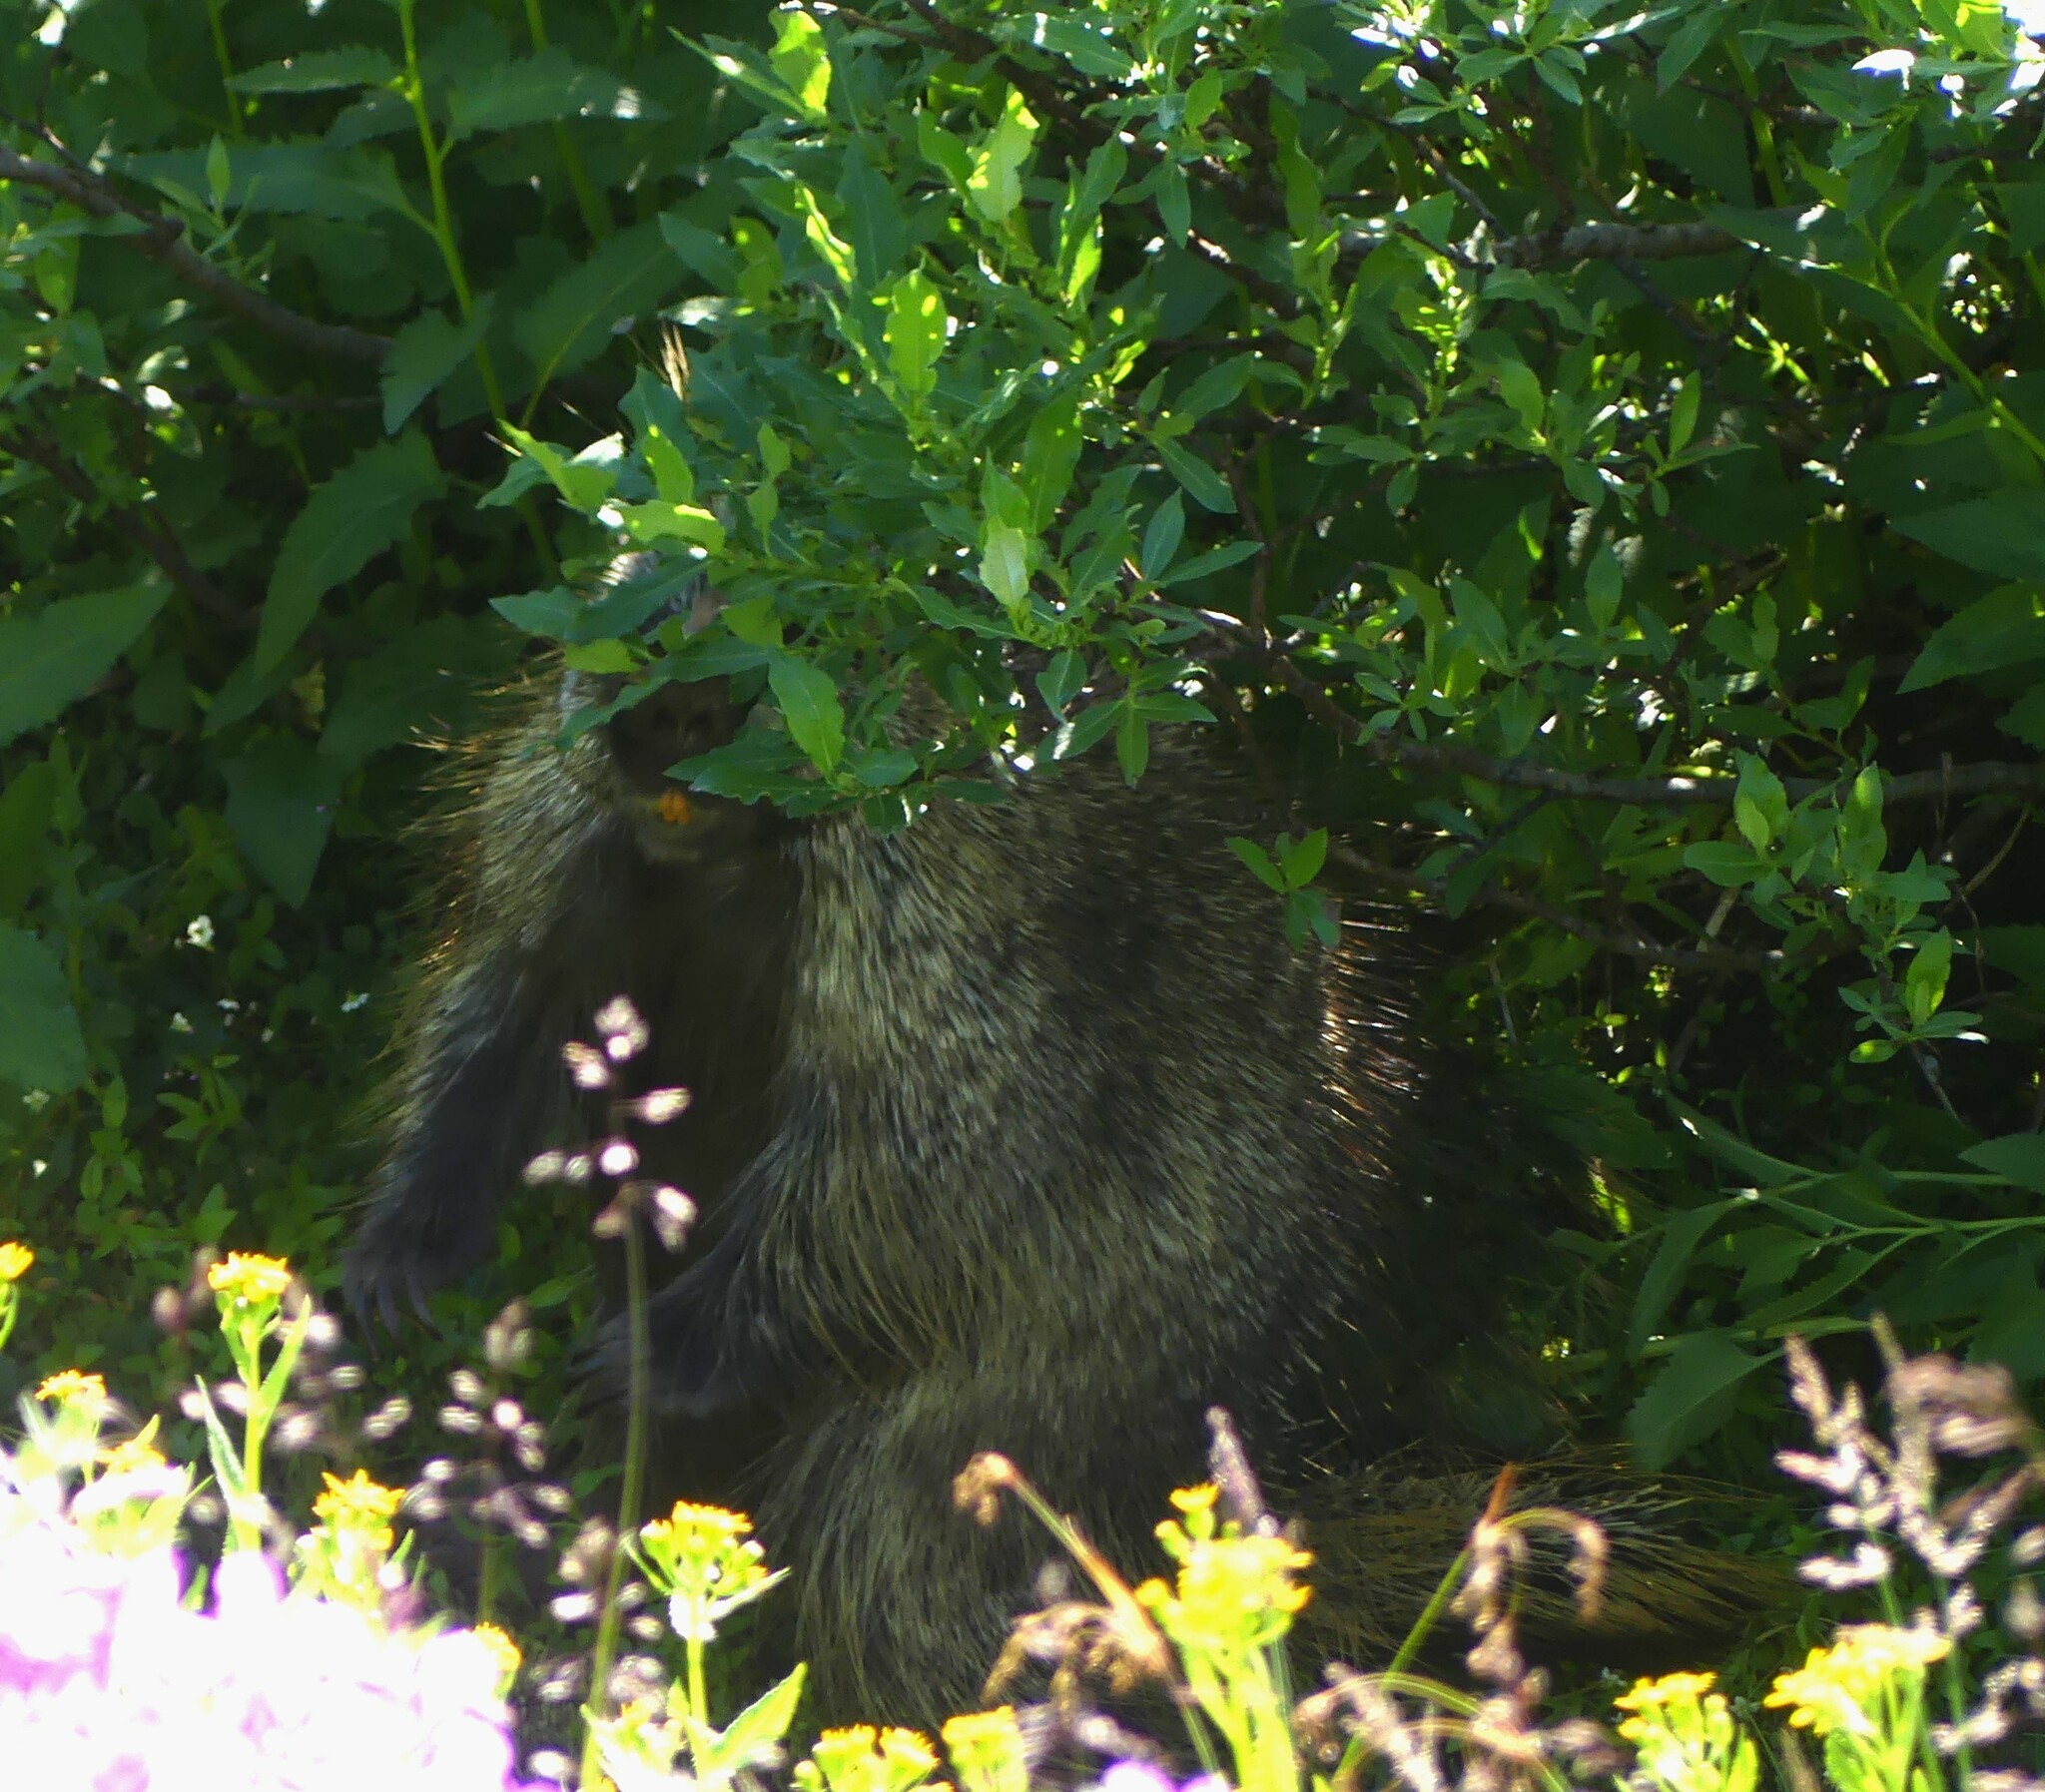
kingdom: Animalia
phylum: Chordata
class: Mammalia
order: Rodentia
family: Erethizontidae
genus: Erethizon
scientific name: Erethizon dorsatus
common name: North american porcupine
